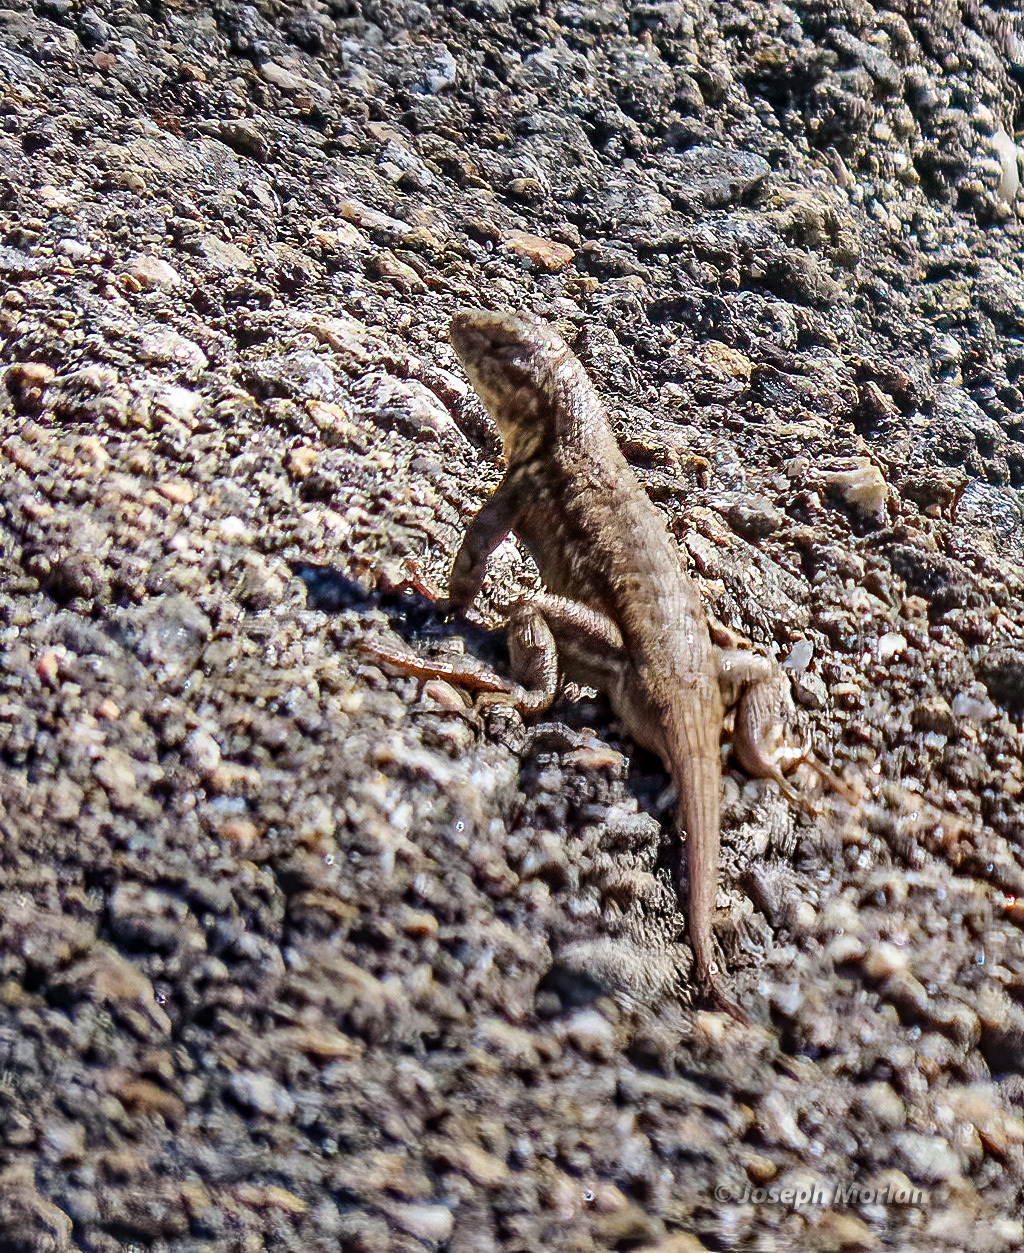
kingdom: Animalia
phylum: Chordata
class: Squamata
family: Phrynosomatidae
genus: Sceloporus
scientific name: Sceloporus graciosus
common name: Sagebrush lizard
